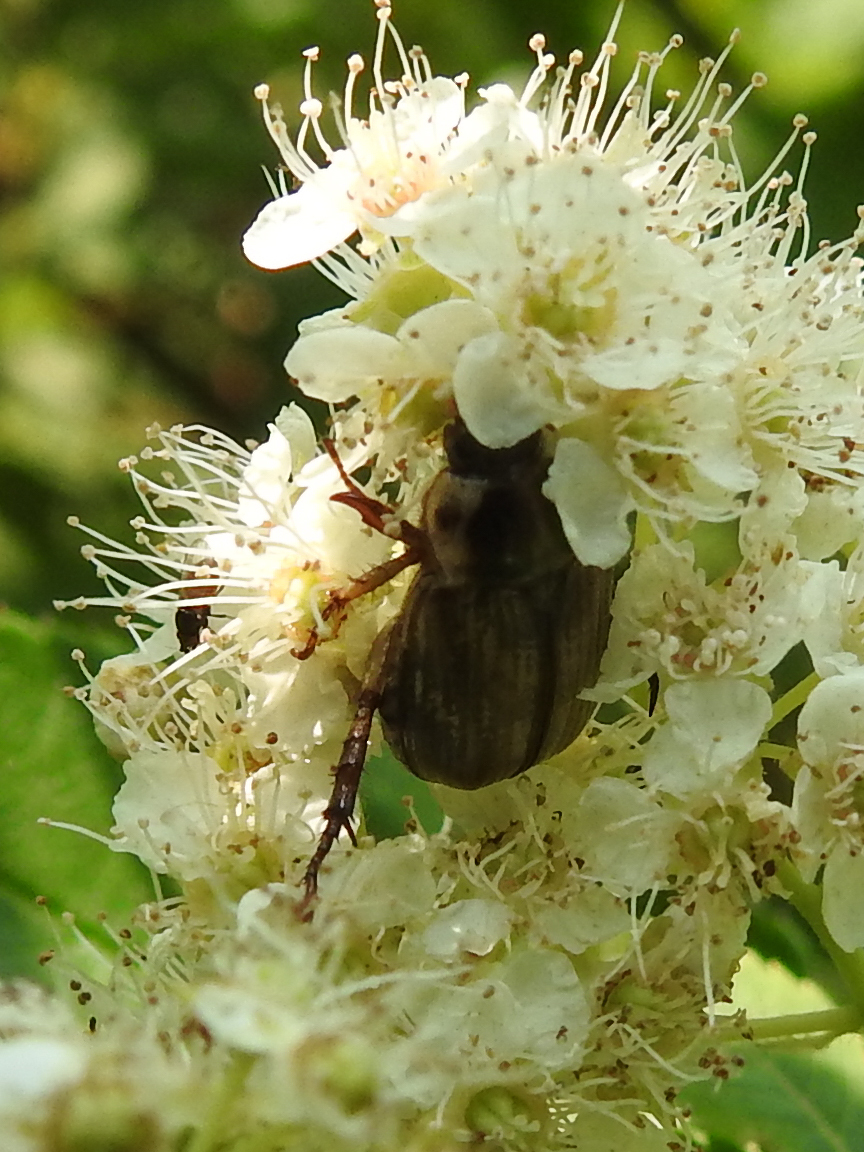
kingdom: Animalia
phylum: Arthropoda
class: Insecta
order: Coleoptera
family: Scarabaeidae
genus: Exomala
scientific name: Exomala orientalis
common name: Oriental beetle
